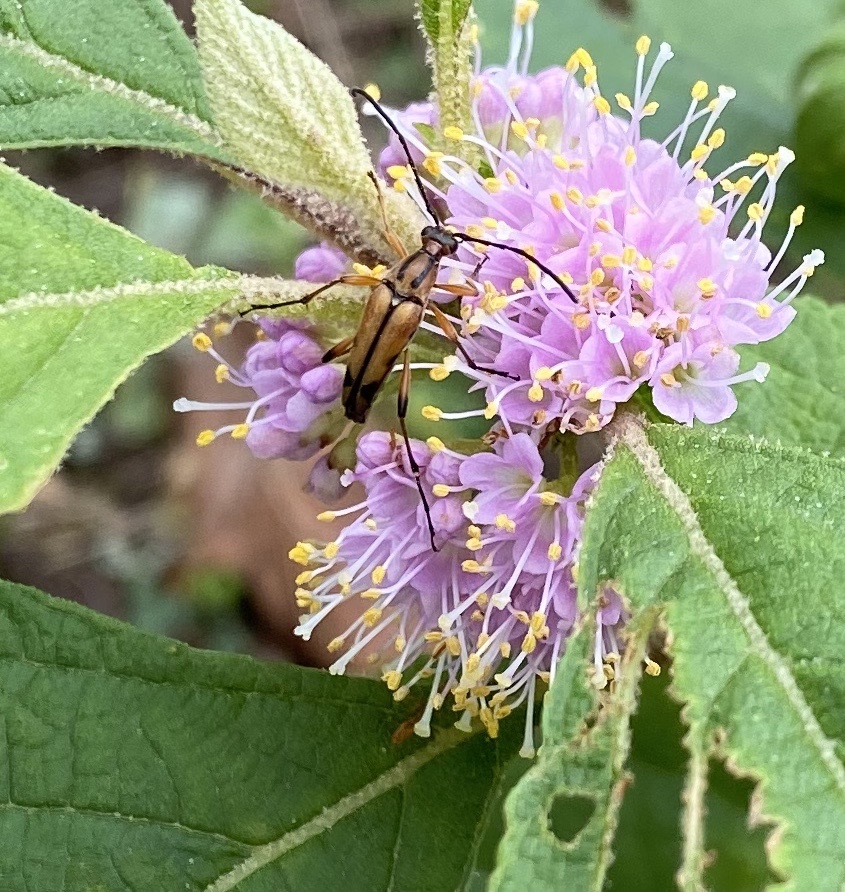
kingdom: Animalia
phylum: Arthropoda
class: Insecta
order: Coleoptera
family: Cerambycidae
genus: Strangalia
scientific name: Strangalia famelica
